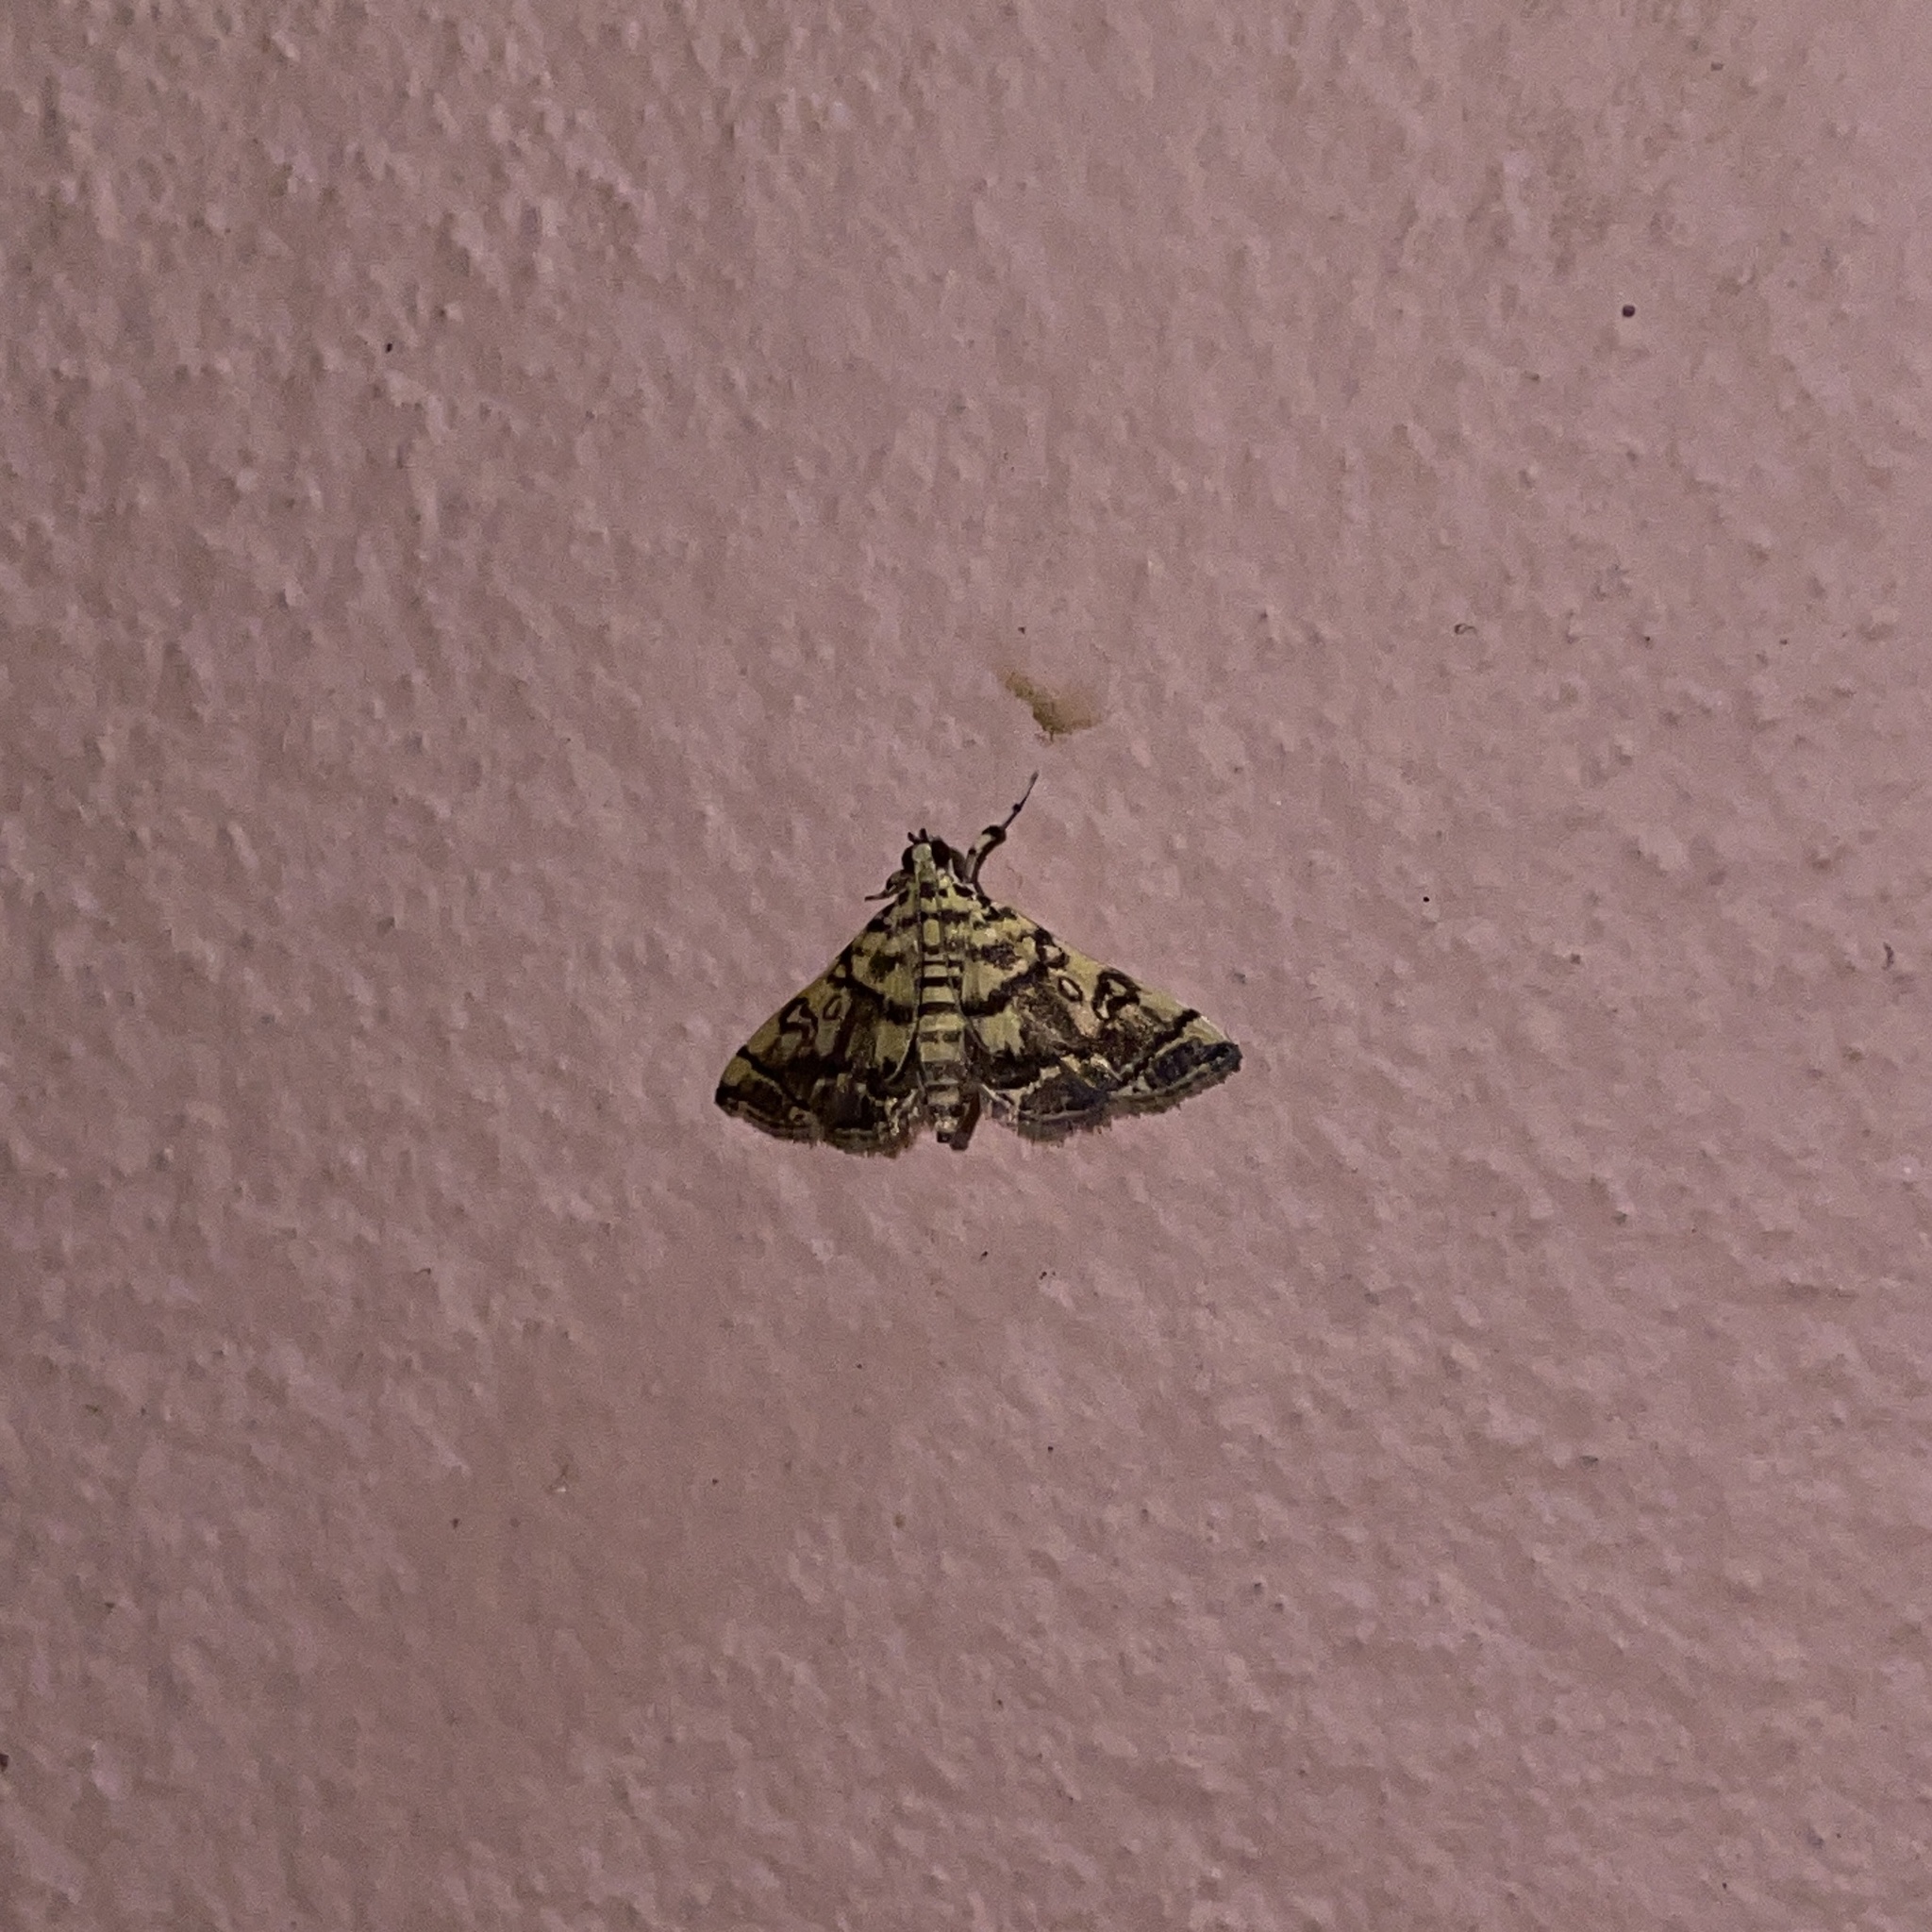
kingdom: Animalia
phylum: Arthropoda
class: Insecta
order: Lepidoptera
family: Crambidae
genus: Apogeshna
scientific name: Apogeshna stenialis
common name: Checkered apogeshna moth
